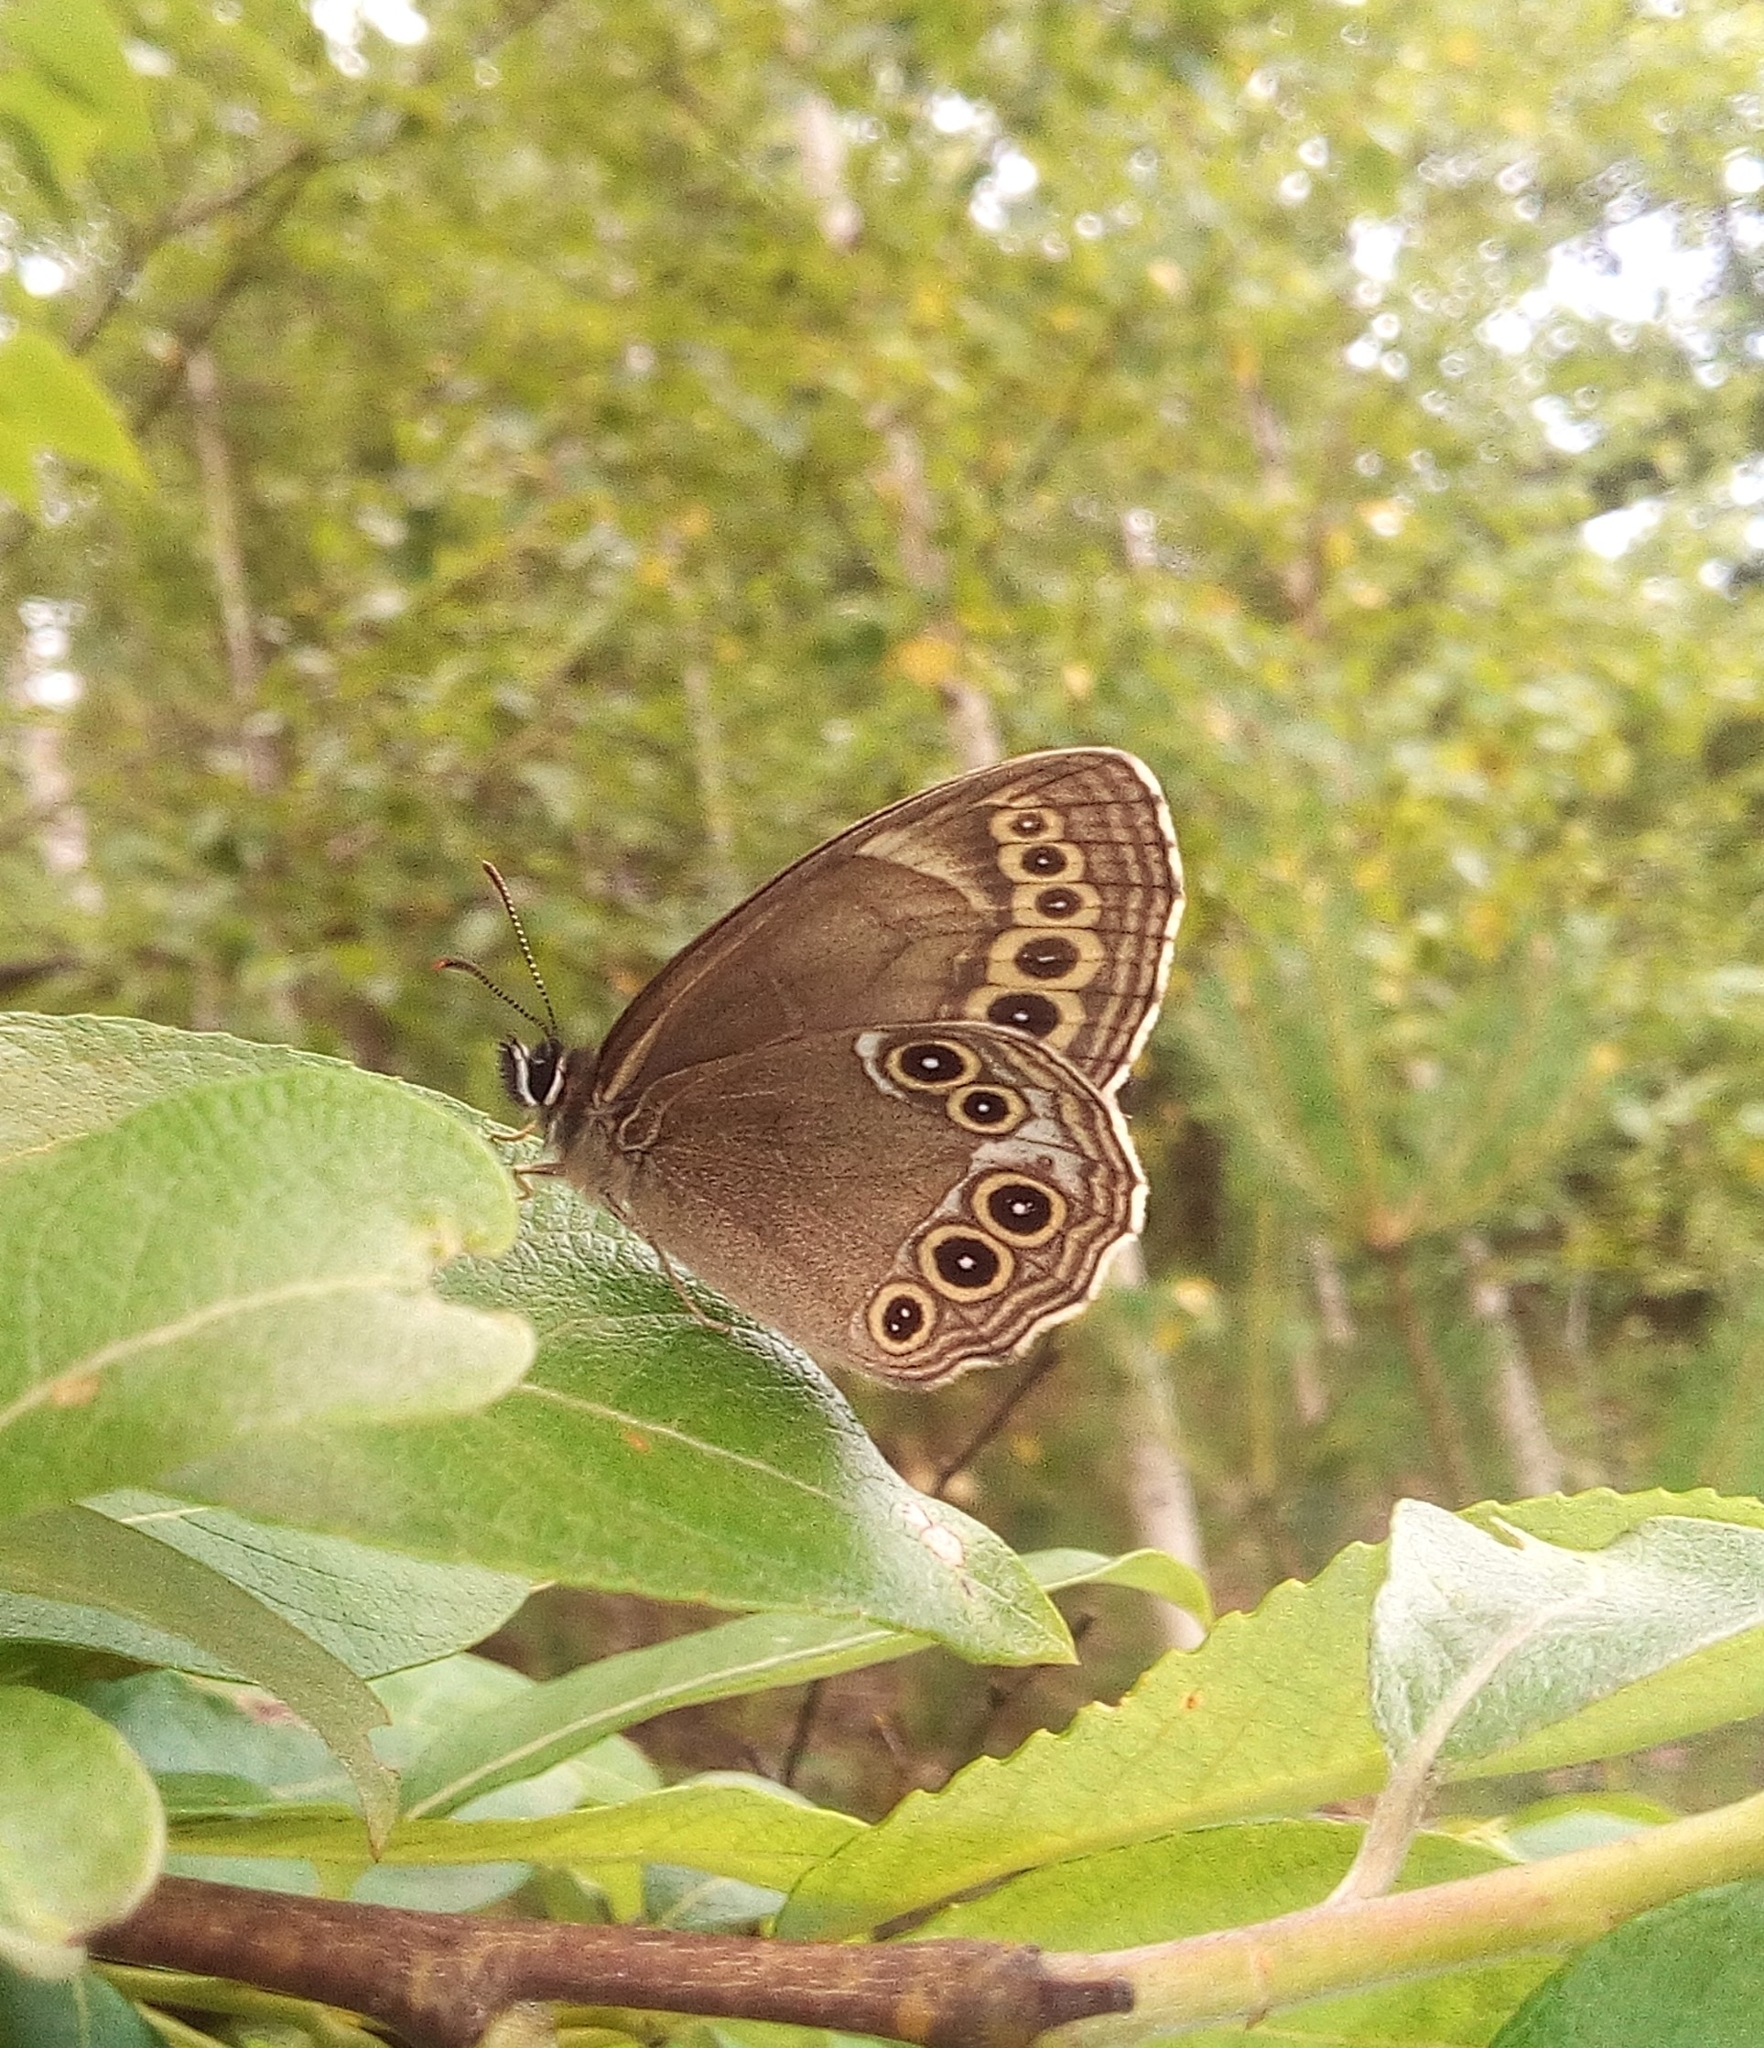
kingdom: Animalia
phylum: Arthropoda
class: Insecta
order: Lepidoptera
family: Nymphalidae
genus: Pararge
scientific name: Pararge Lopinga achine
